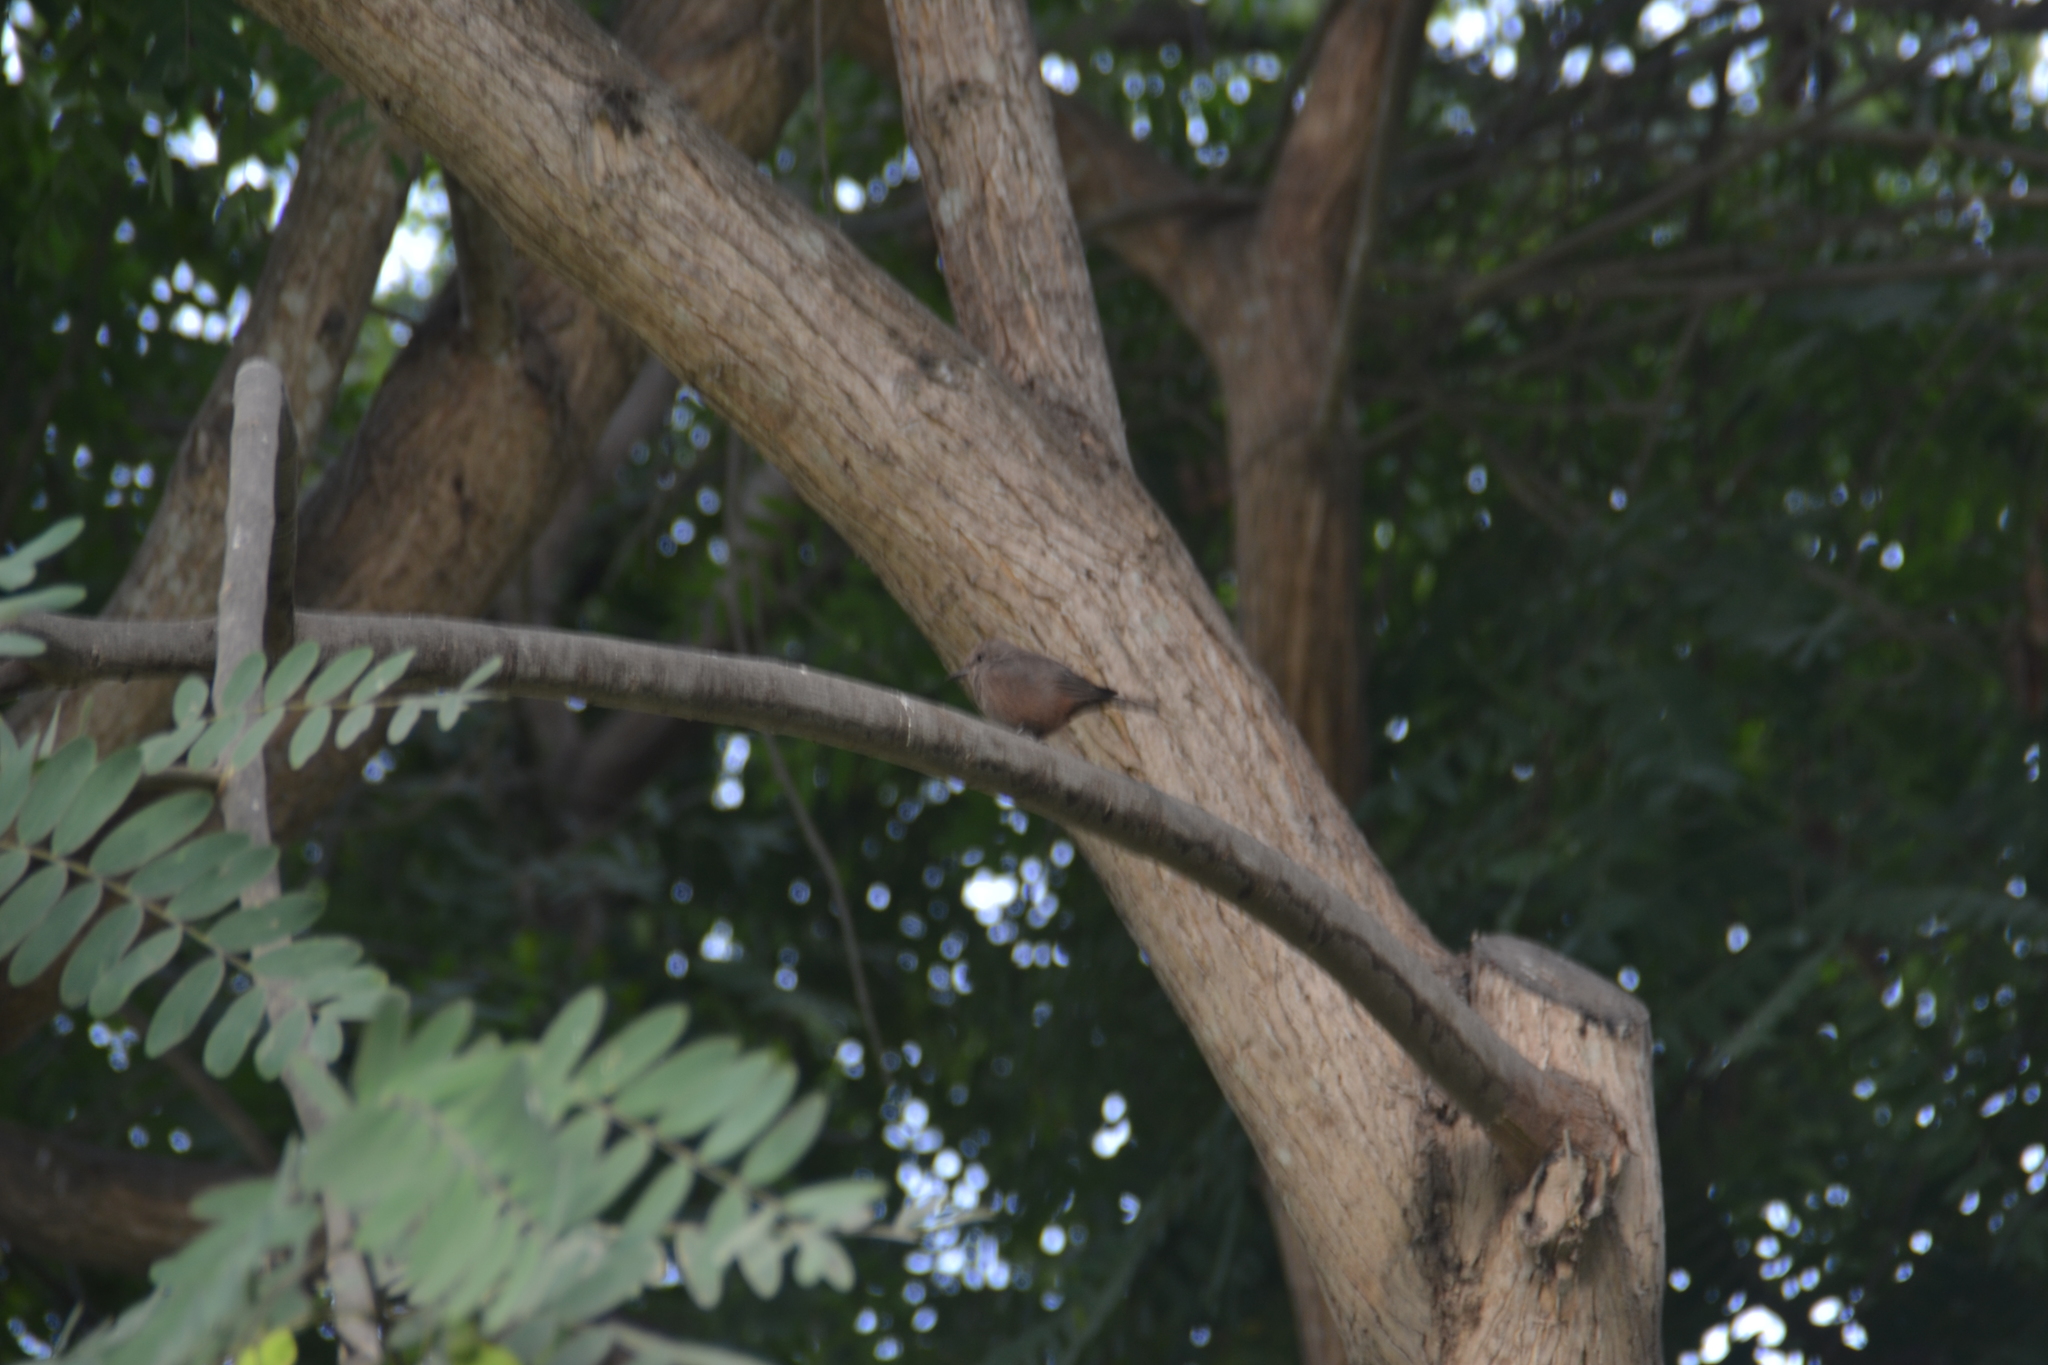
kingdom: Animalia
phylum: Chordata
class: Aves
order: Passeriformes
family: Tyrannidae
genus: Pyrocephalus
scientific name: Pyrocephalus rubinus
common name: Vermilion flycatcher
